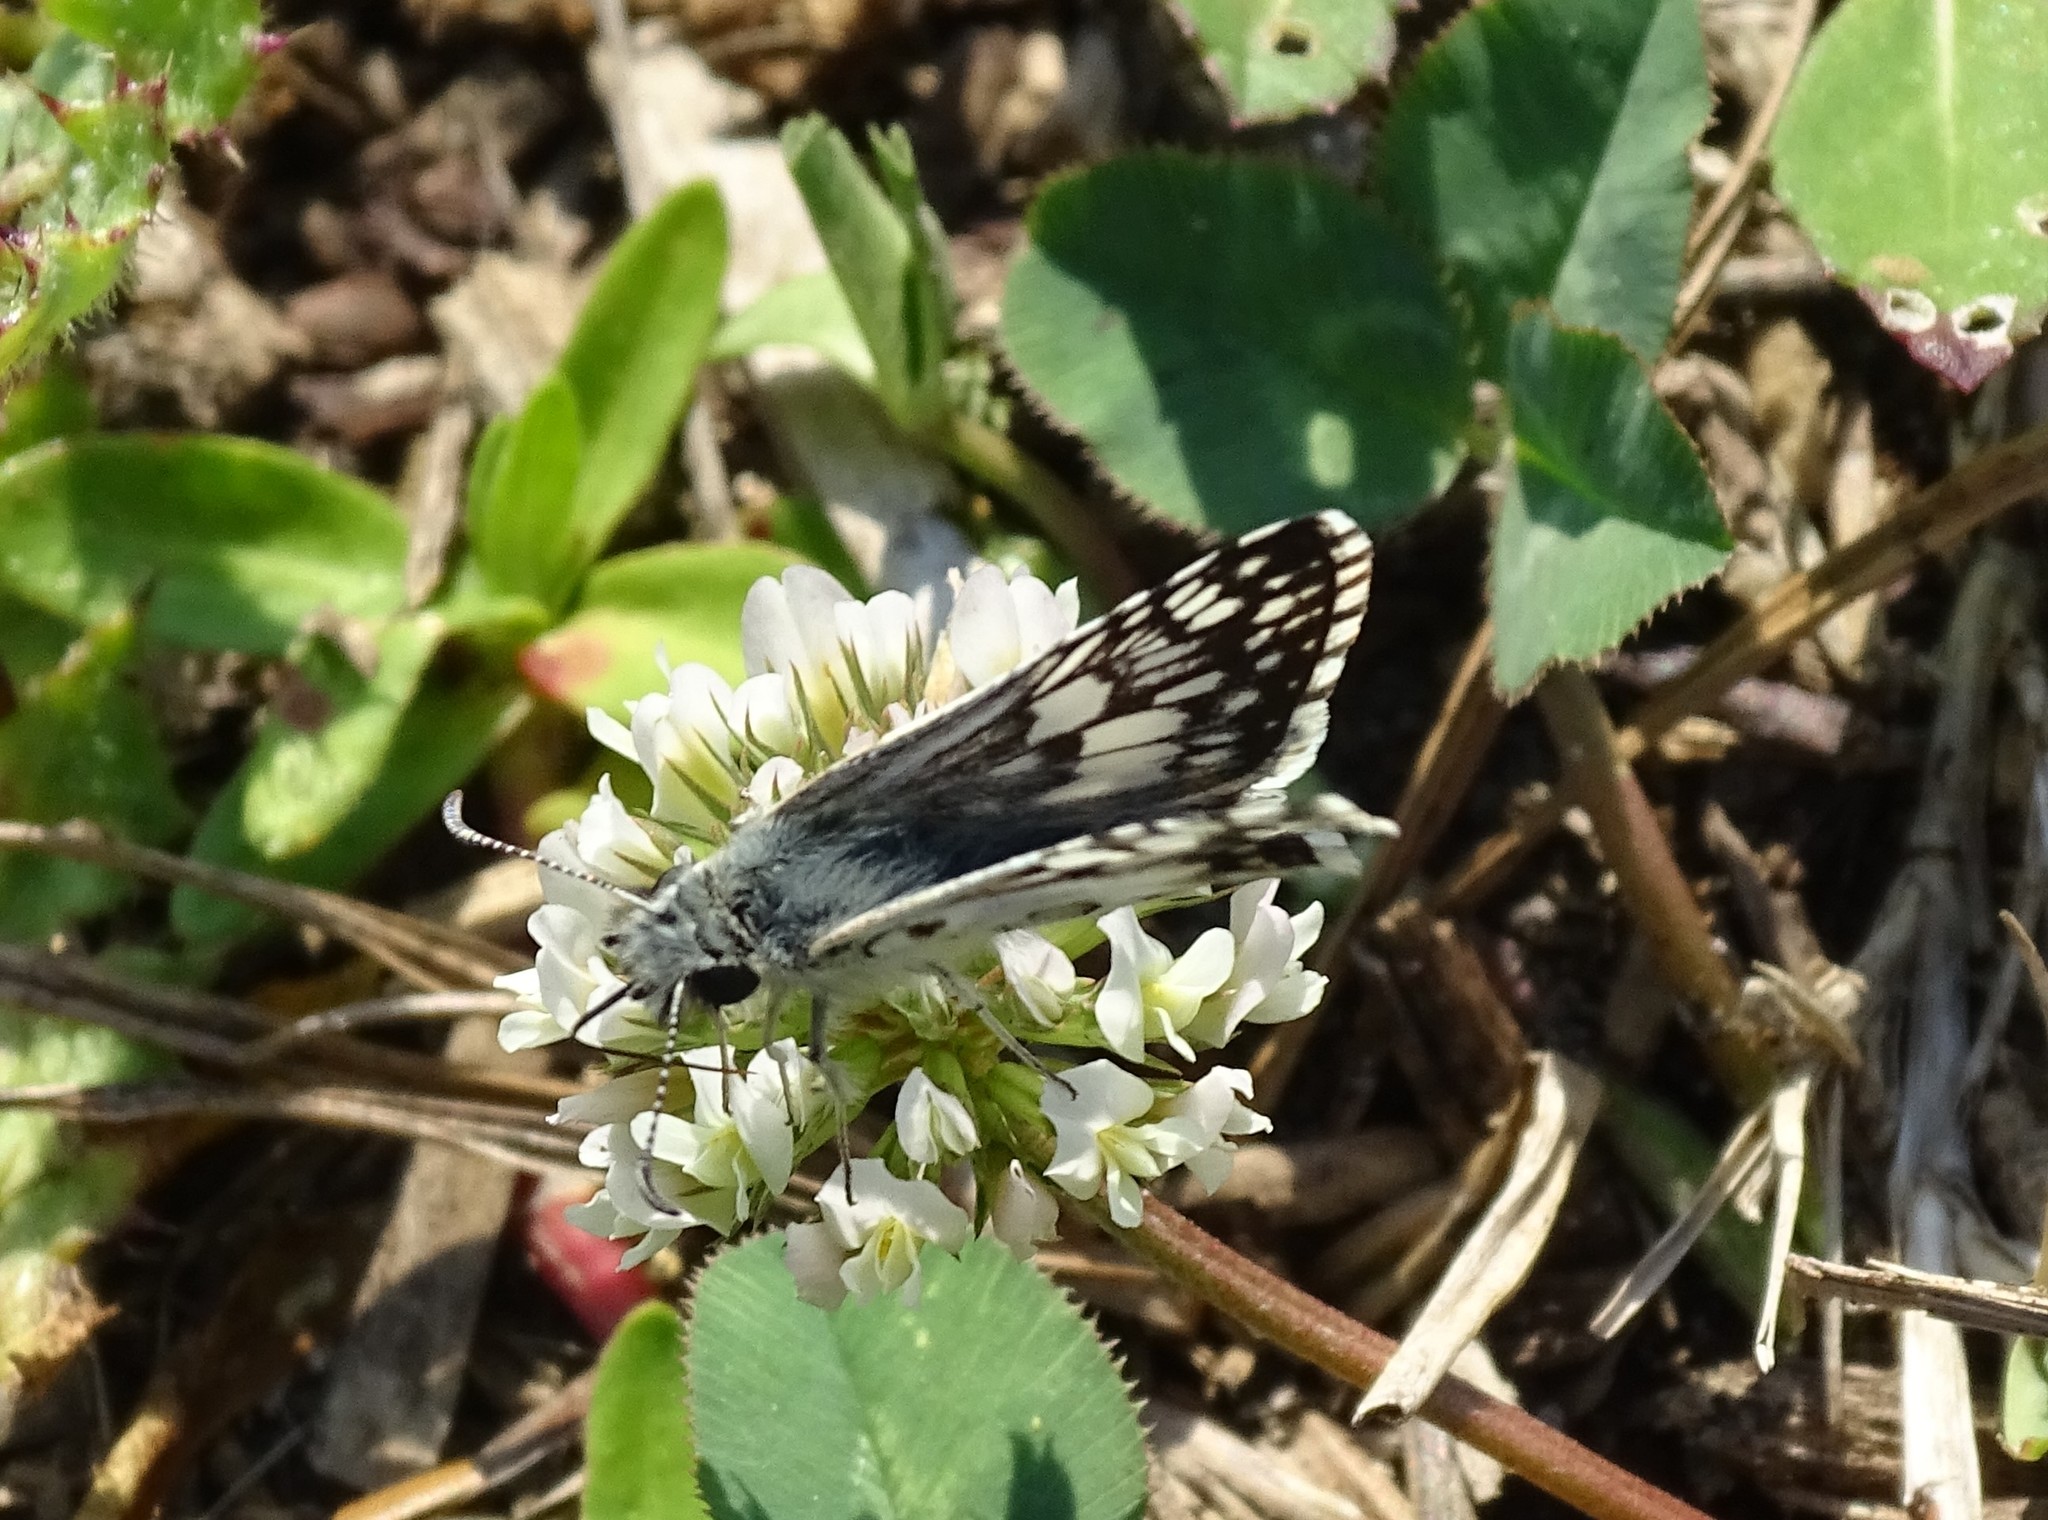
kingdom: Animalia
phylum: Arthropoda
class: Insecta
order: Lepidoptera
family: Hesperiidae
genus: Burnsius
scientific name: Burnsius albezens
